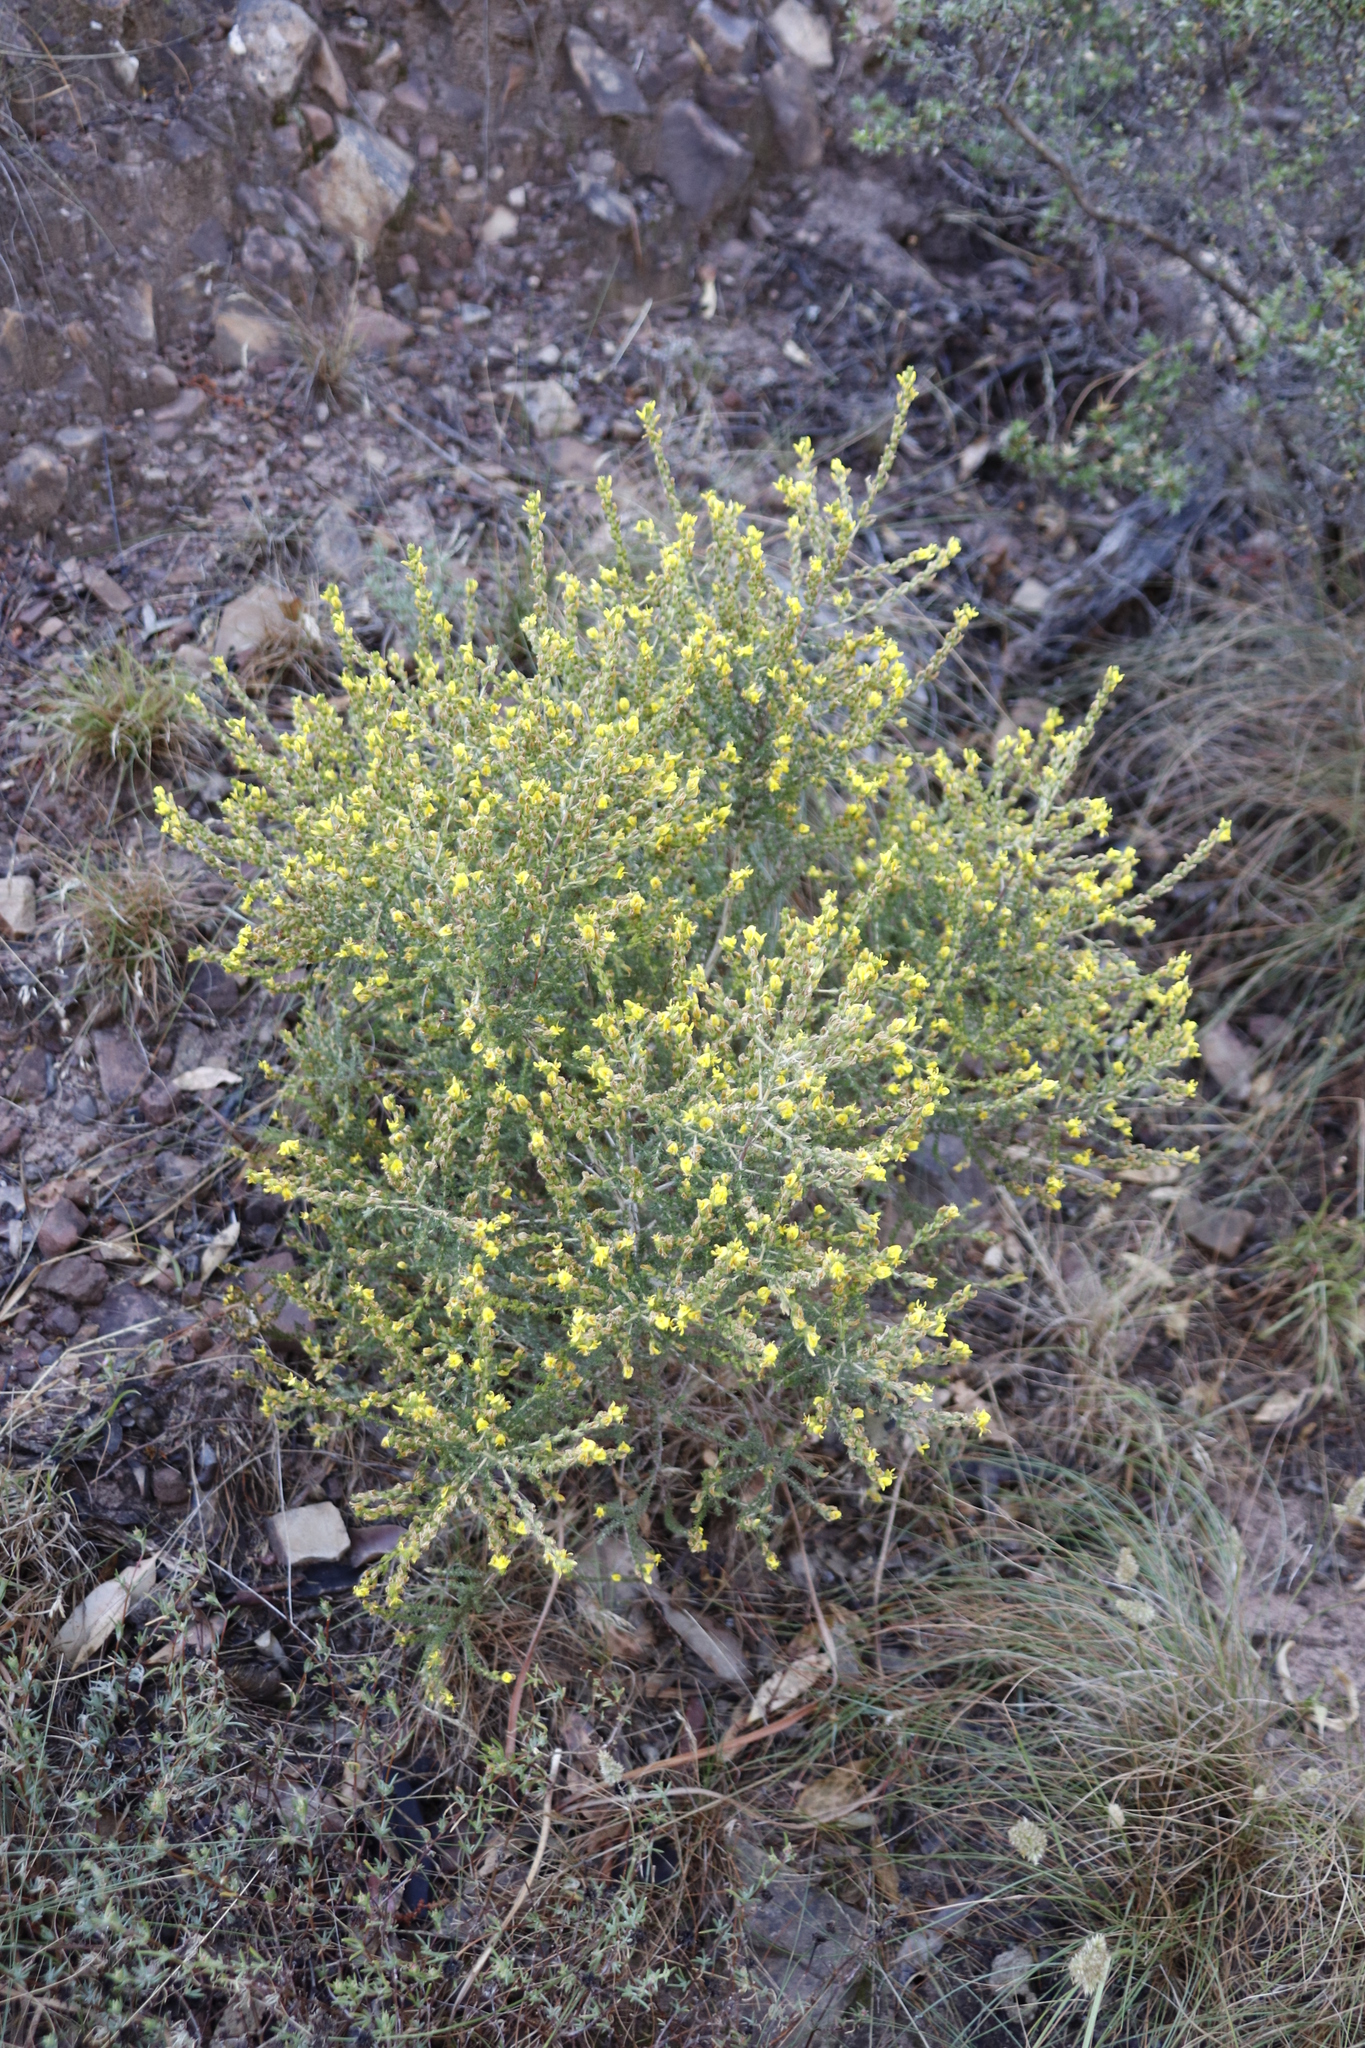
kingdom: Plantae
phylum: Tracheophyta
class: Magnoliopsida
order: Fabales
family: Fabaceae
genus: Aspalathus
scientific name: Aspalathus ericifolia
